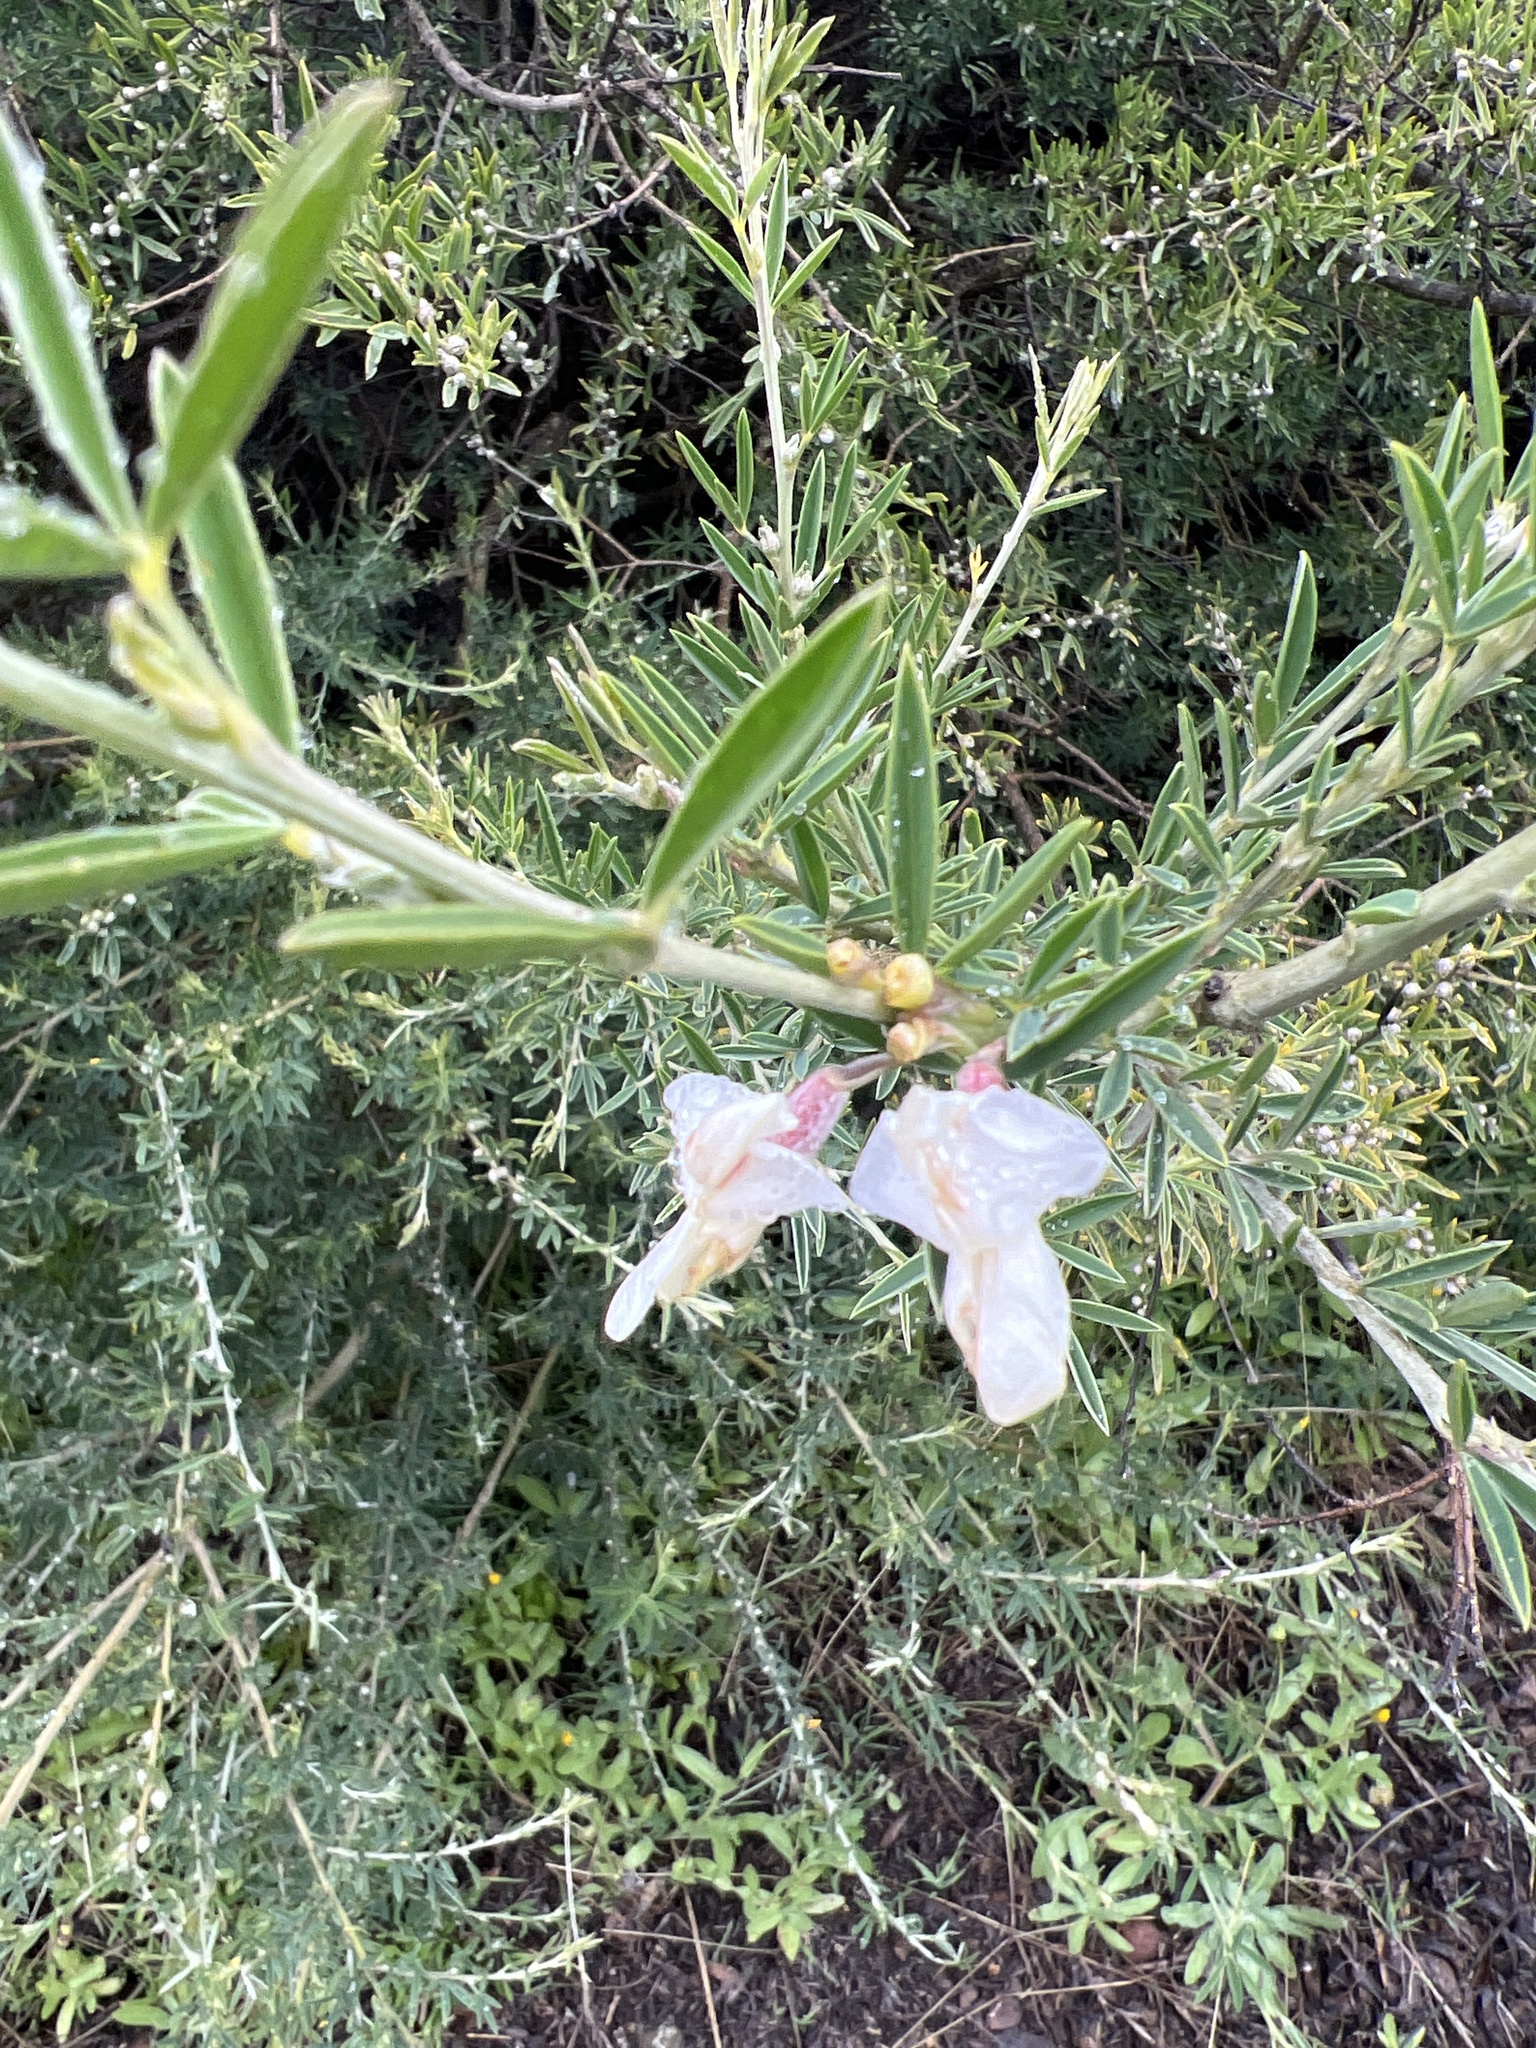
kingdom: Plantae
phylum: Tracheophyta
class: Magnoliopsida
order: Fabales
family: Fabaceae
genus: Chamaecytisus
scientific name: Chamaecytisus prolifer
